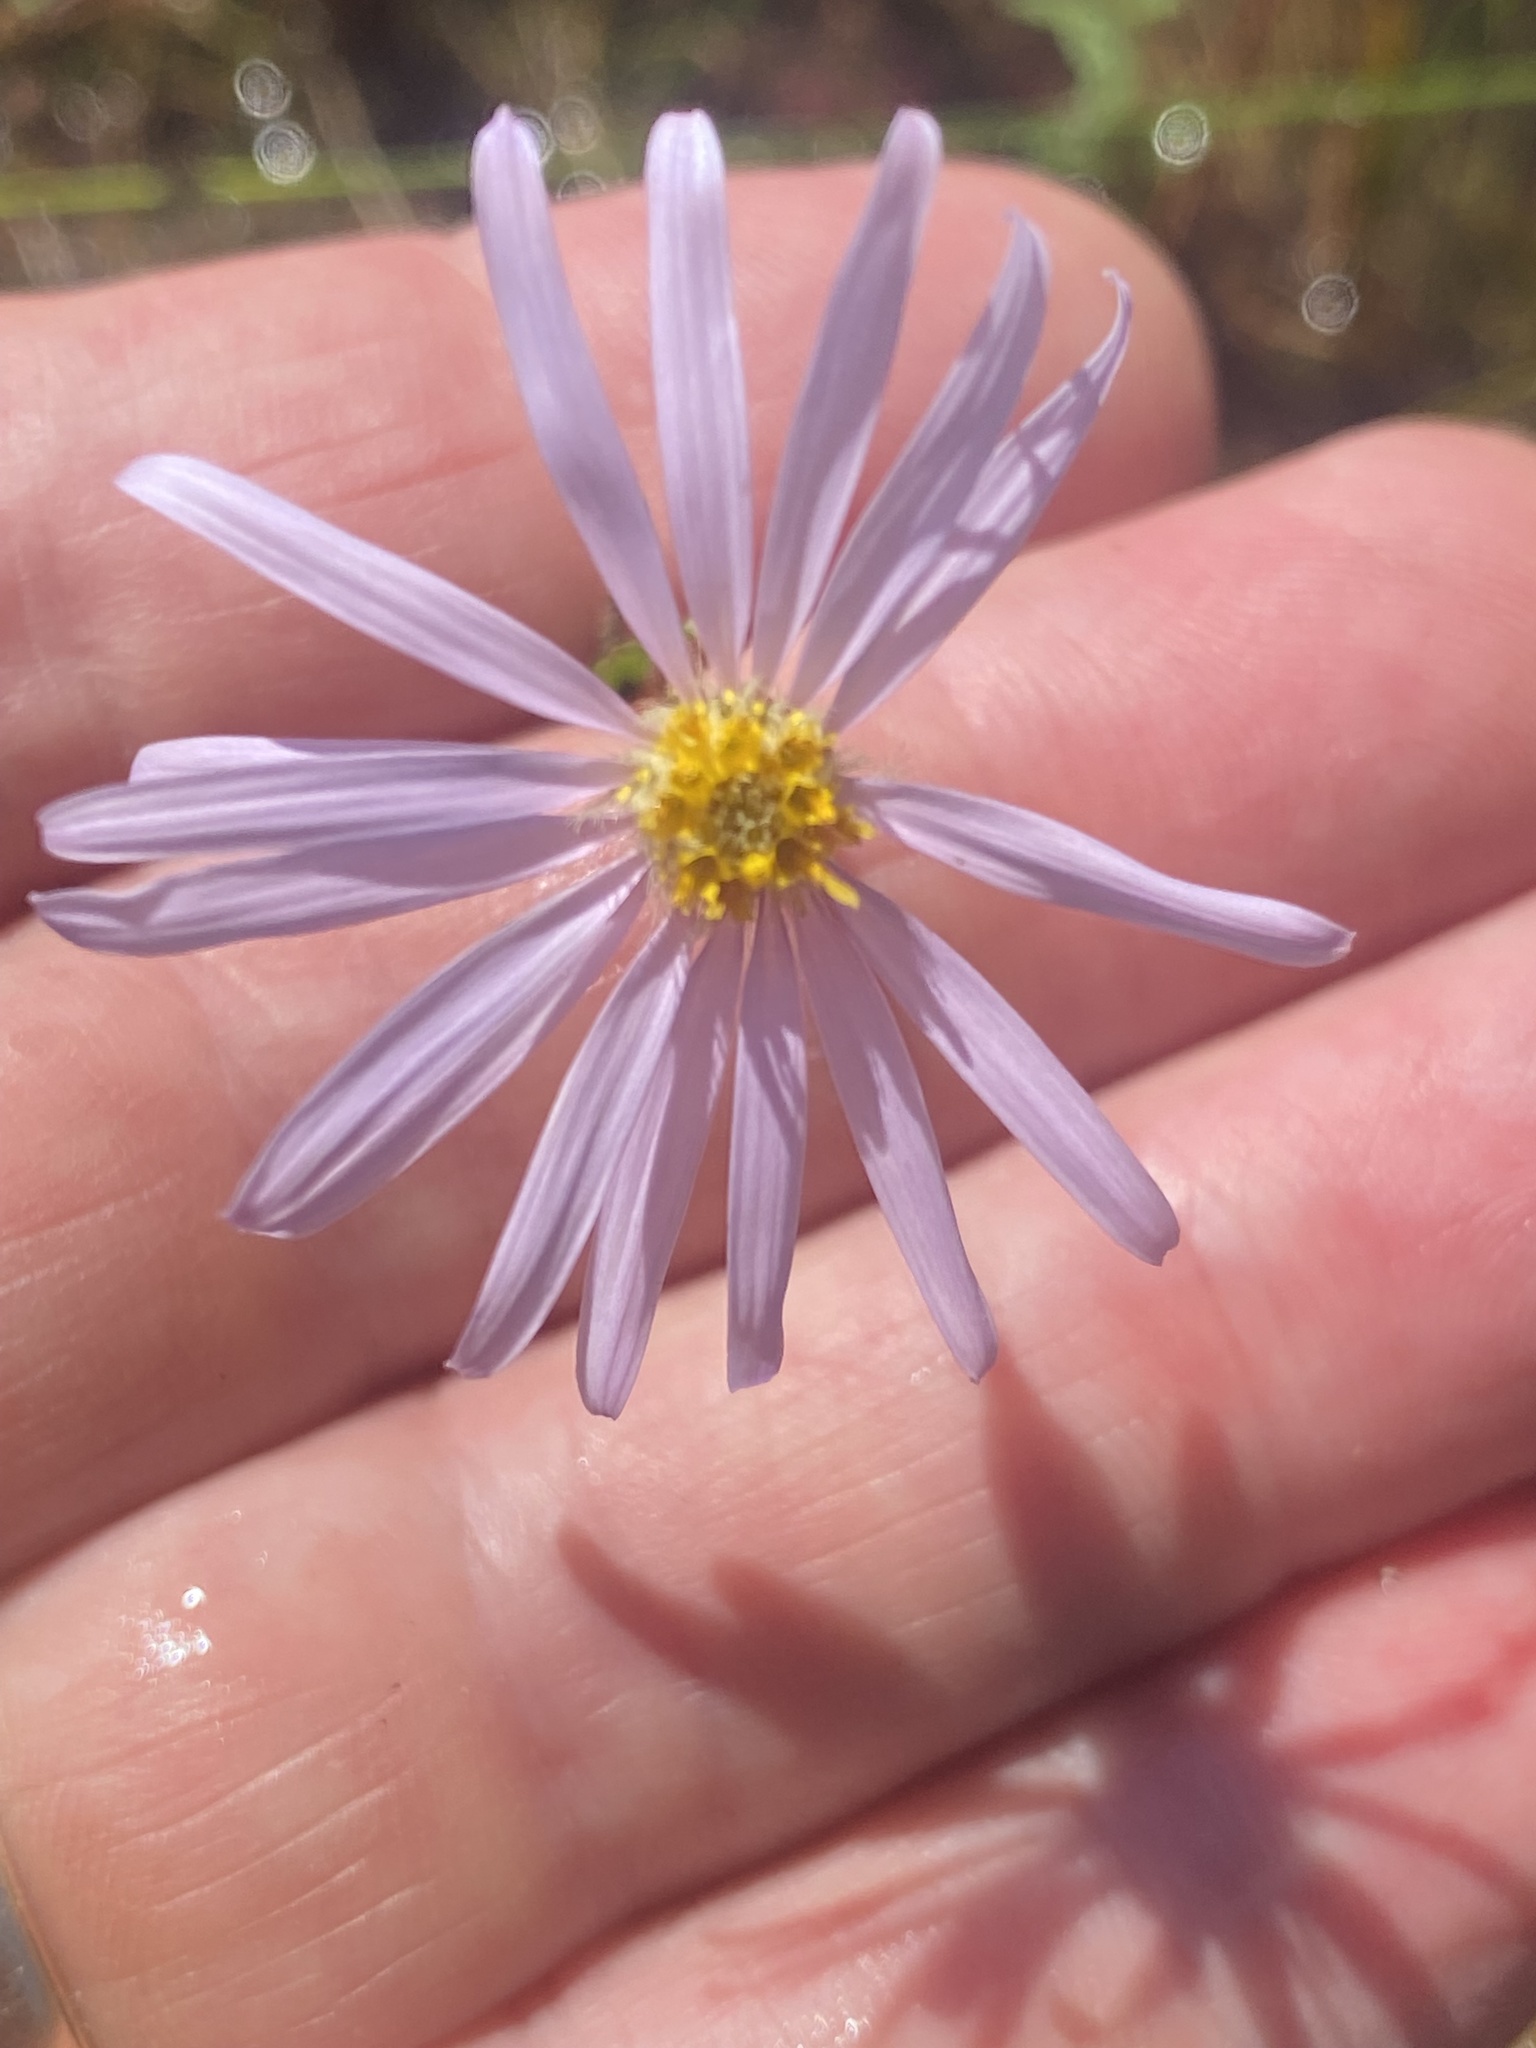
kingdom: Plantae
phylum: Tracheophyta
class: Magnoliopsida
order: Asterales
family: Asteraceae
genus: Oclemena
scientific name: Oclemena nemoralis
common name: Bog aster
